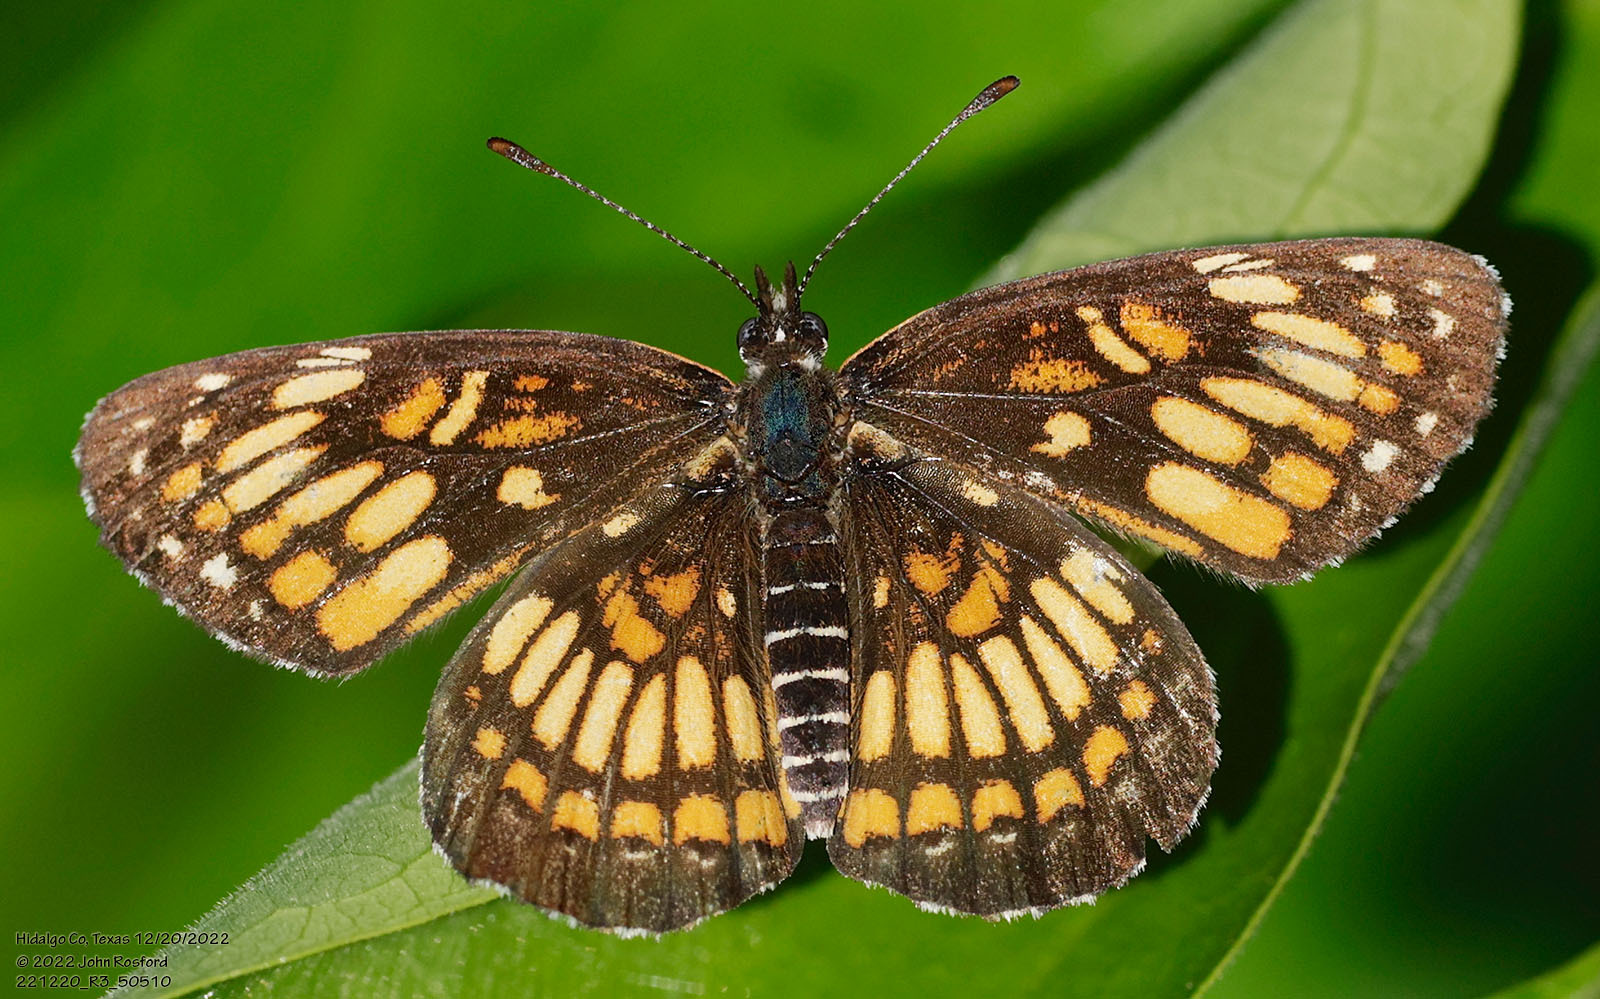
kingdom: Animalia
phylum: Arthropoda
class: Insecta
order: Lepidoptera
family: Nymphalidae
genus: Thessalia
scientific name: Thessalia theona
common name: Nymphalid moth
